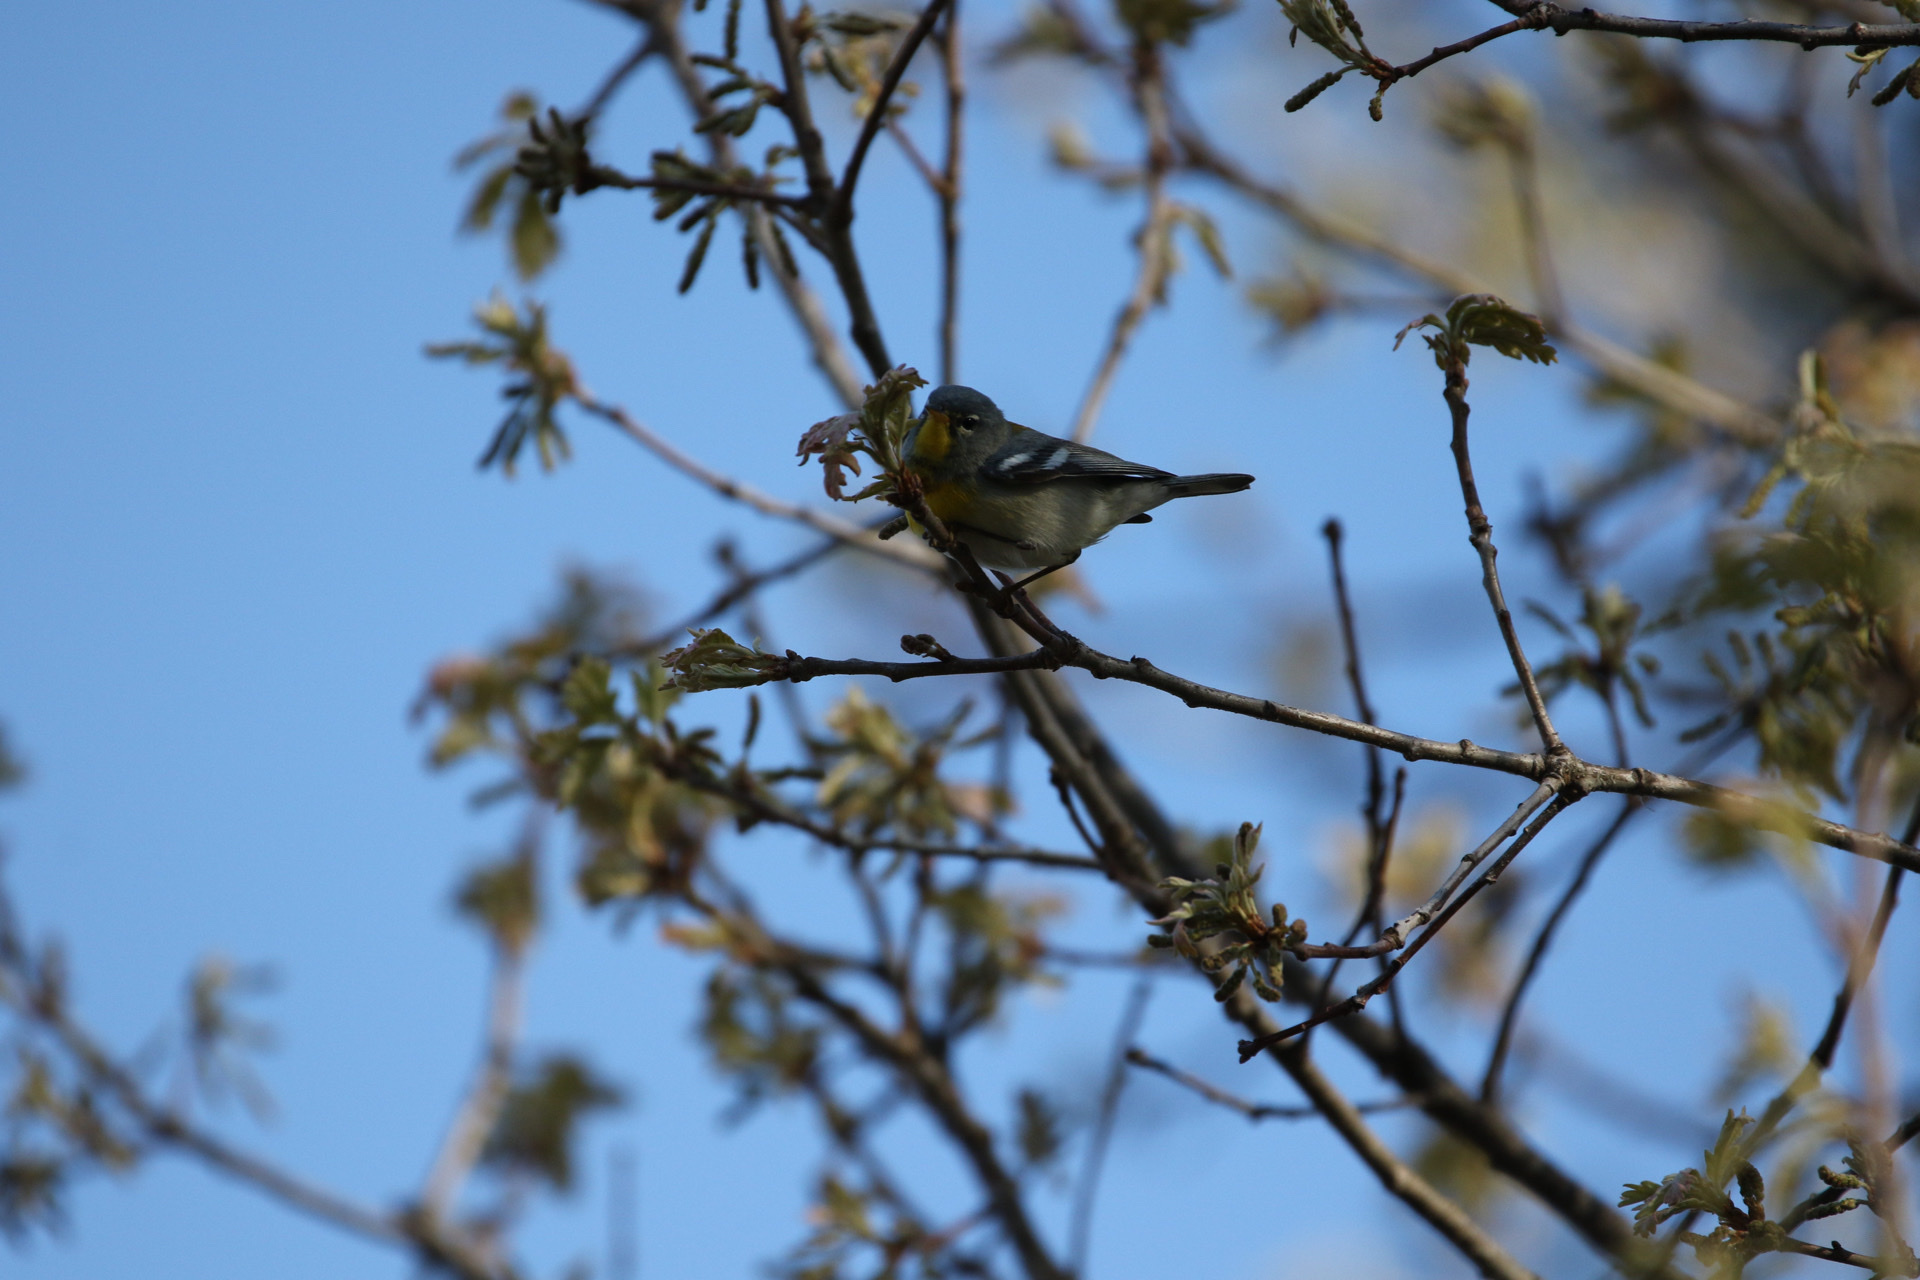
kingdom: Animalia
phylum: Chordata
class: Aves
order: Passeriformes
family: Parulidae
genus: Setophaga
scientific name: Setophaga americana
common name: Northern parula
